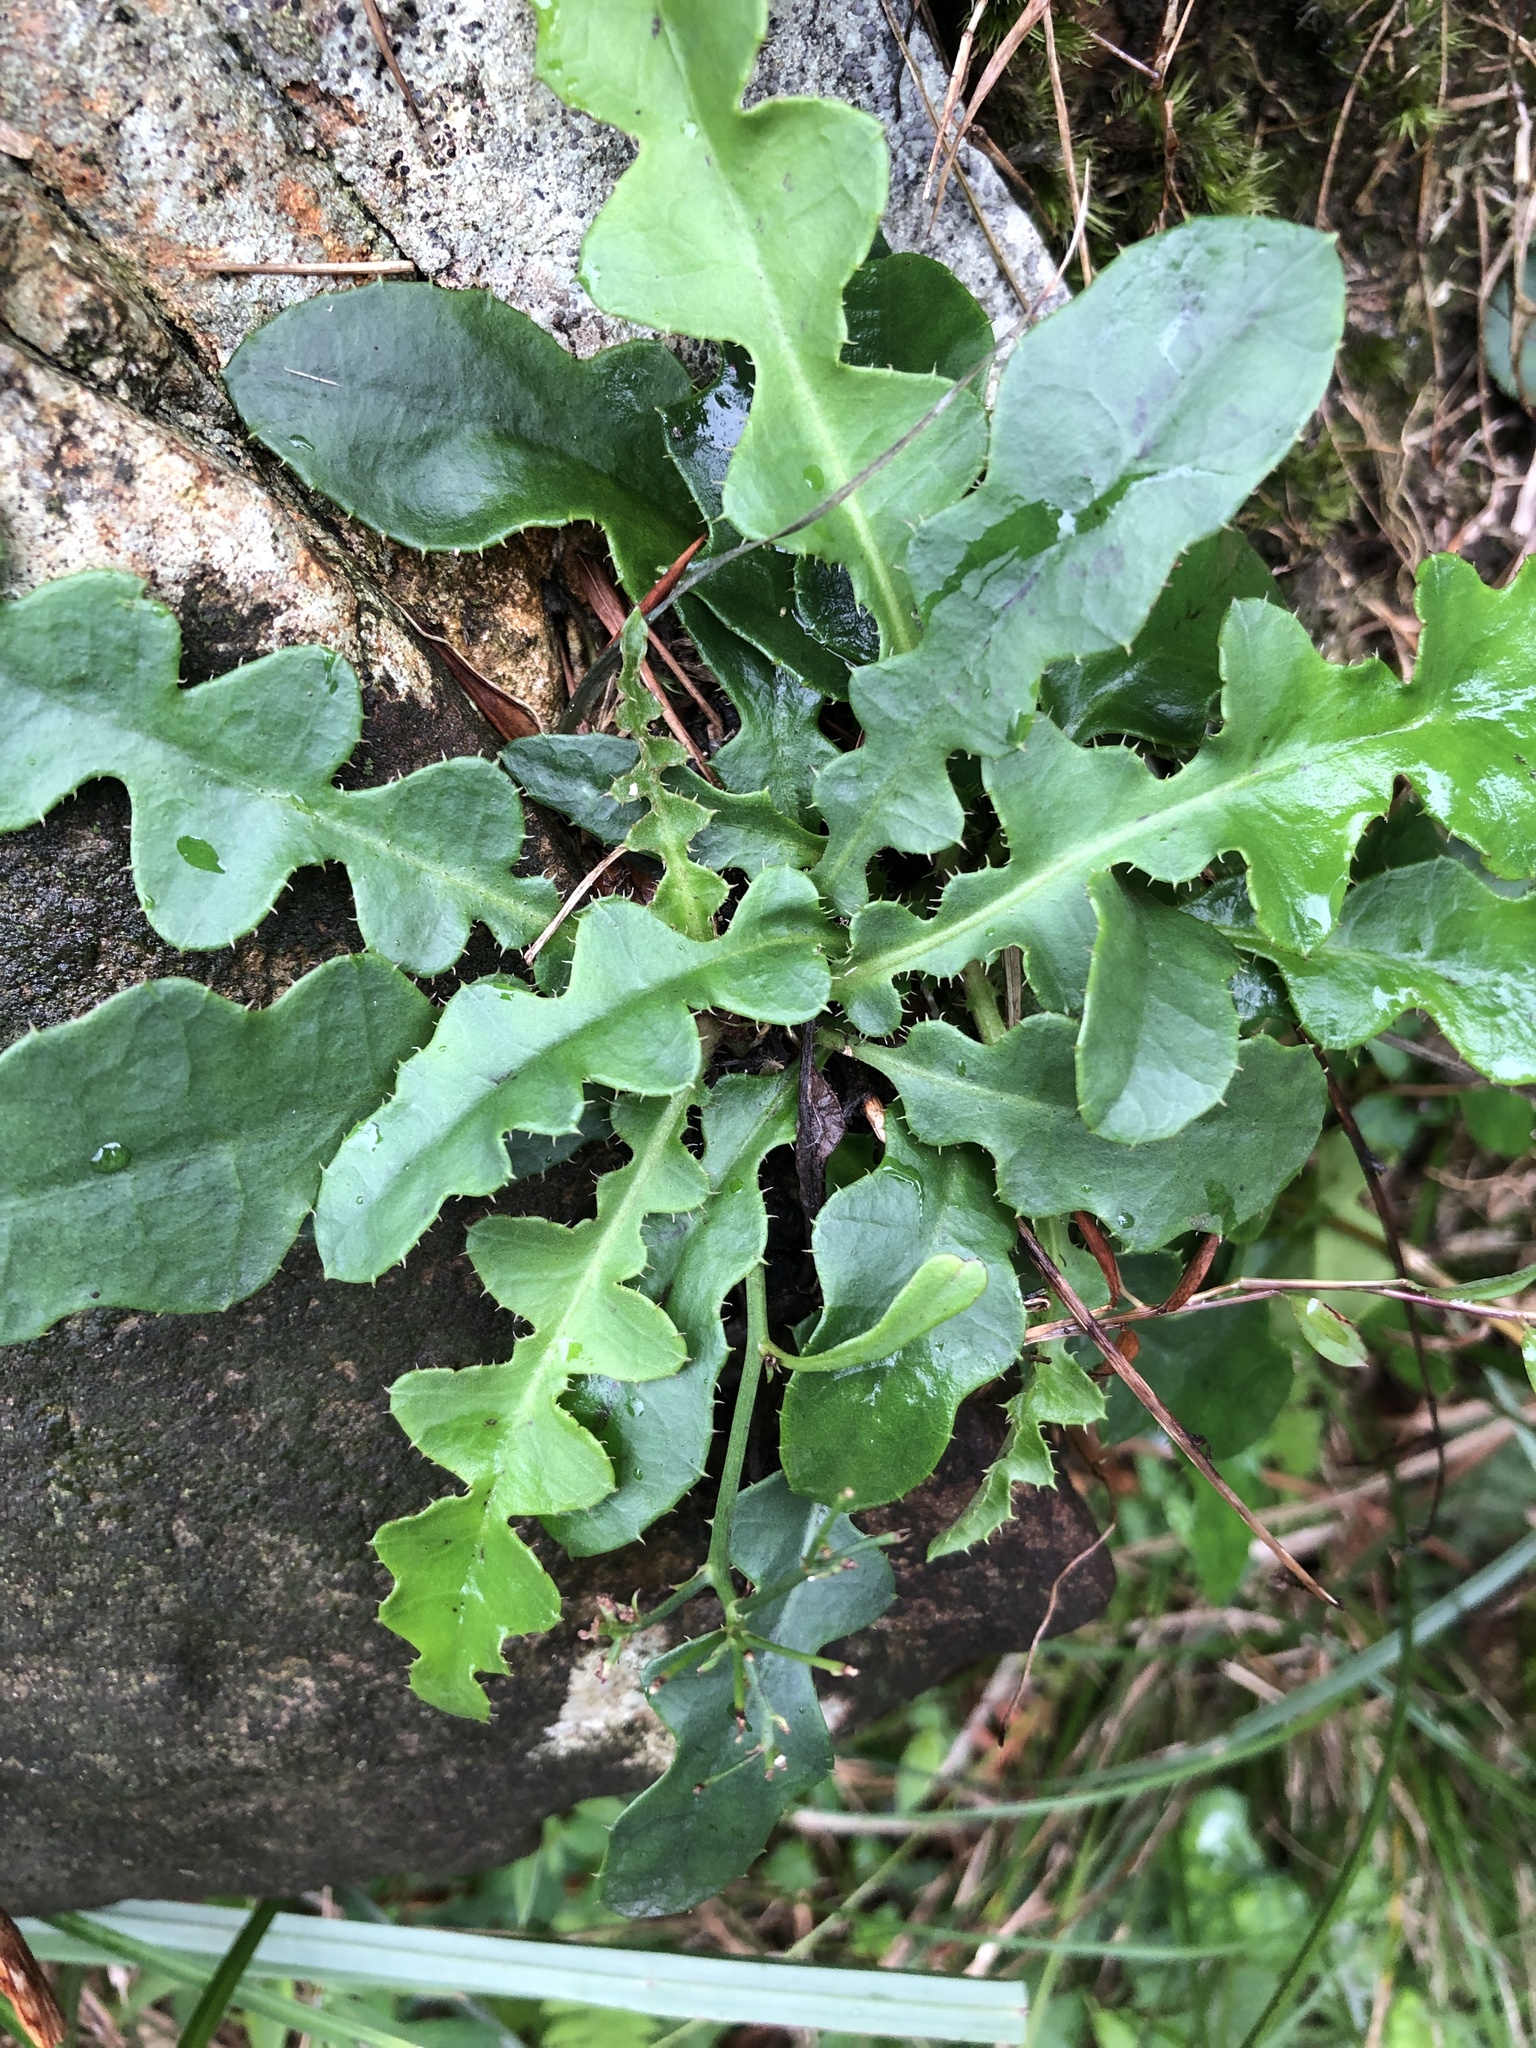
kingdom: Plantae
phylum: Tracheophyta
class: Magnoliopsida
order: Asterales
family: Asteraceae
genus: Ixeridium
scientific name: Ixeridium laevigatum
